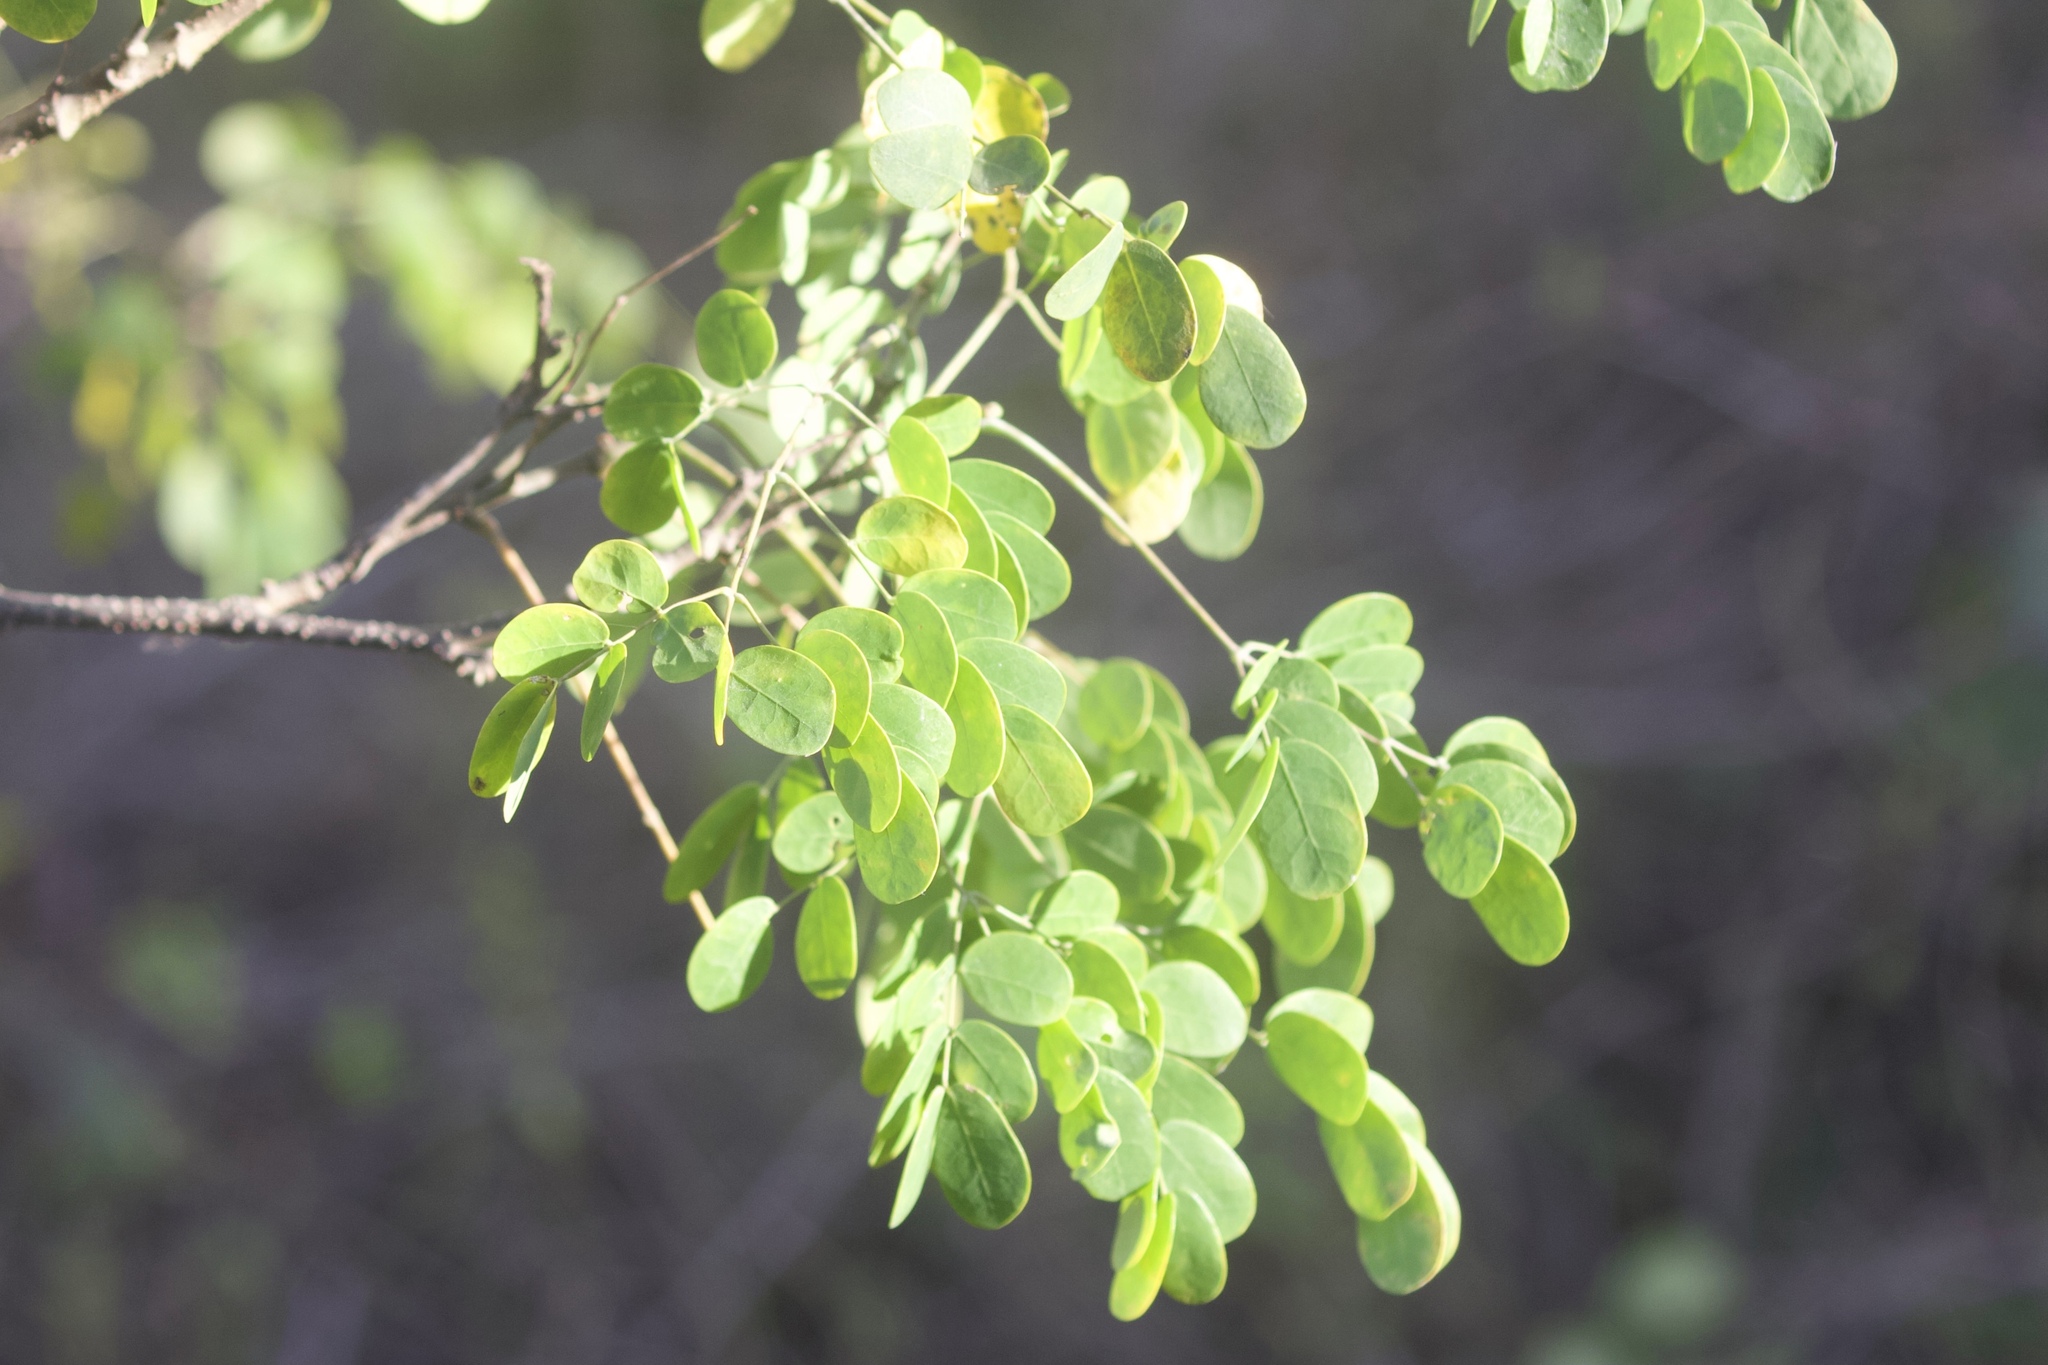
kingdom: Plantae
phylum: Tracheophyta
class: Magnoliopsida
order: Fabales
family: Fabaceae
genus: Erythrostemon
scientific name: Erythrostemon mexicanus
